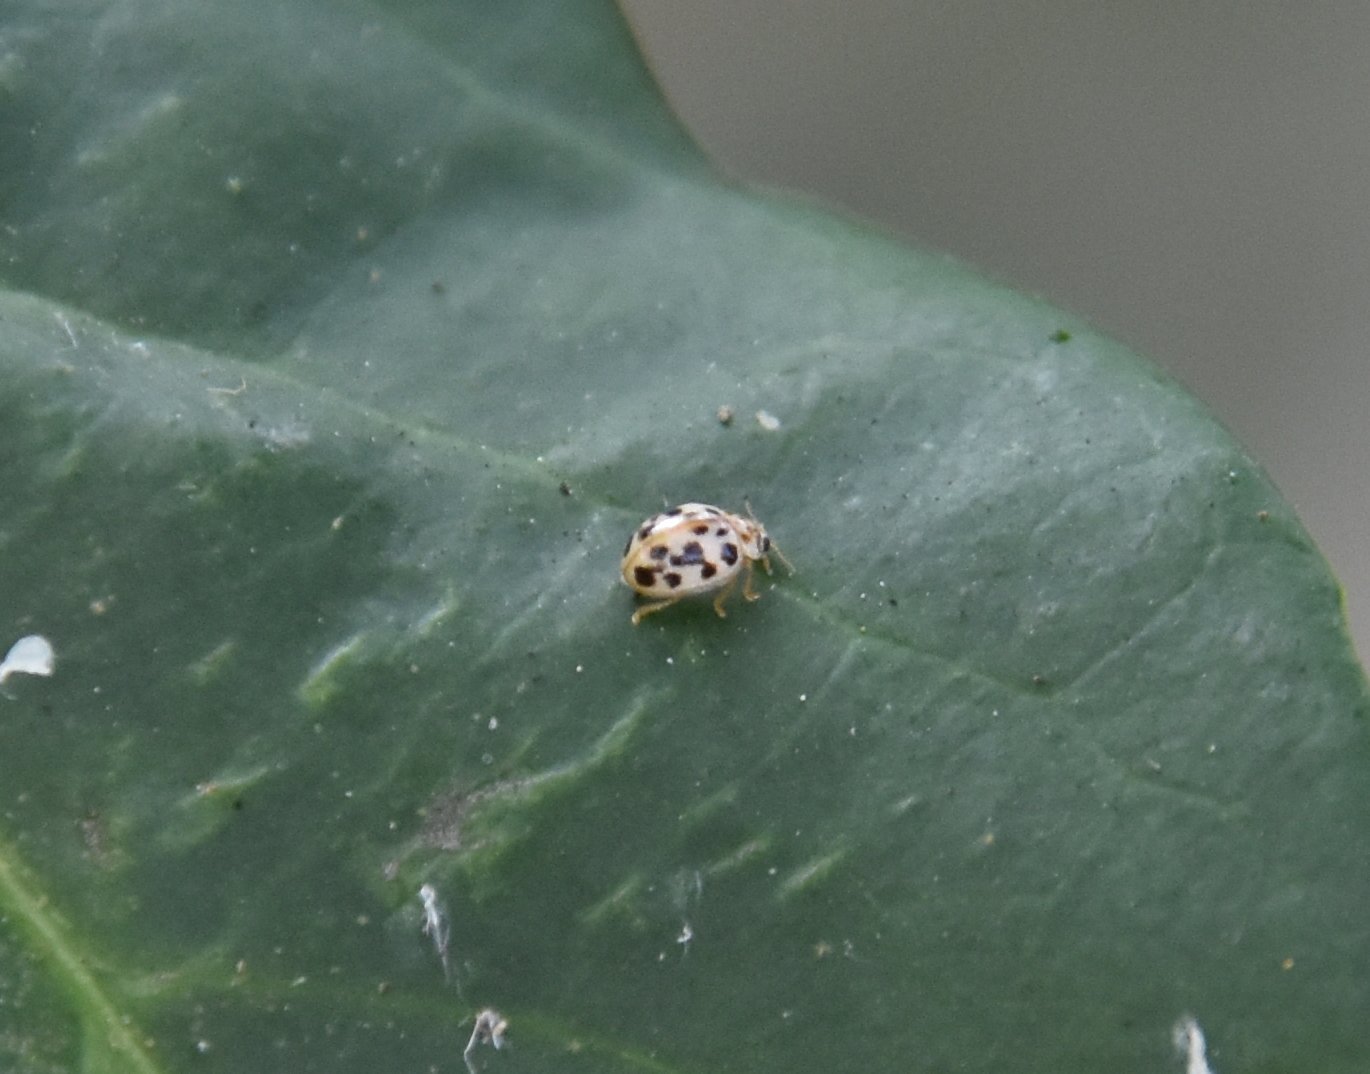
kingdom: Animalia
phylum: Arthropoda
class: Insecta
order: Coleoptera
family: Coccinellidae
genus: Psyllobora
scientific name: Psyllobora parvinotata
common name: Small-spotted psyllobora
